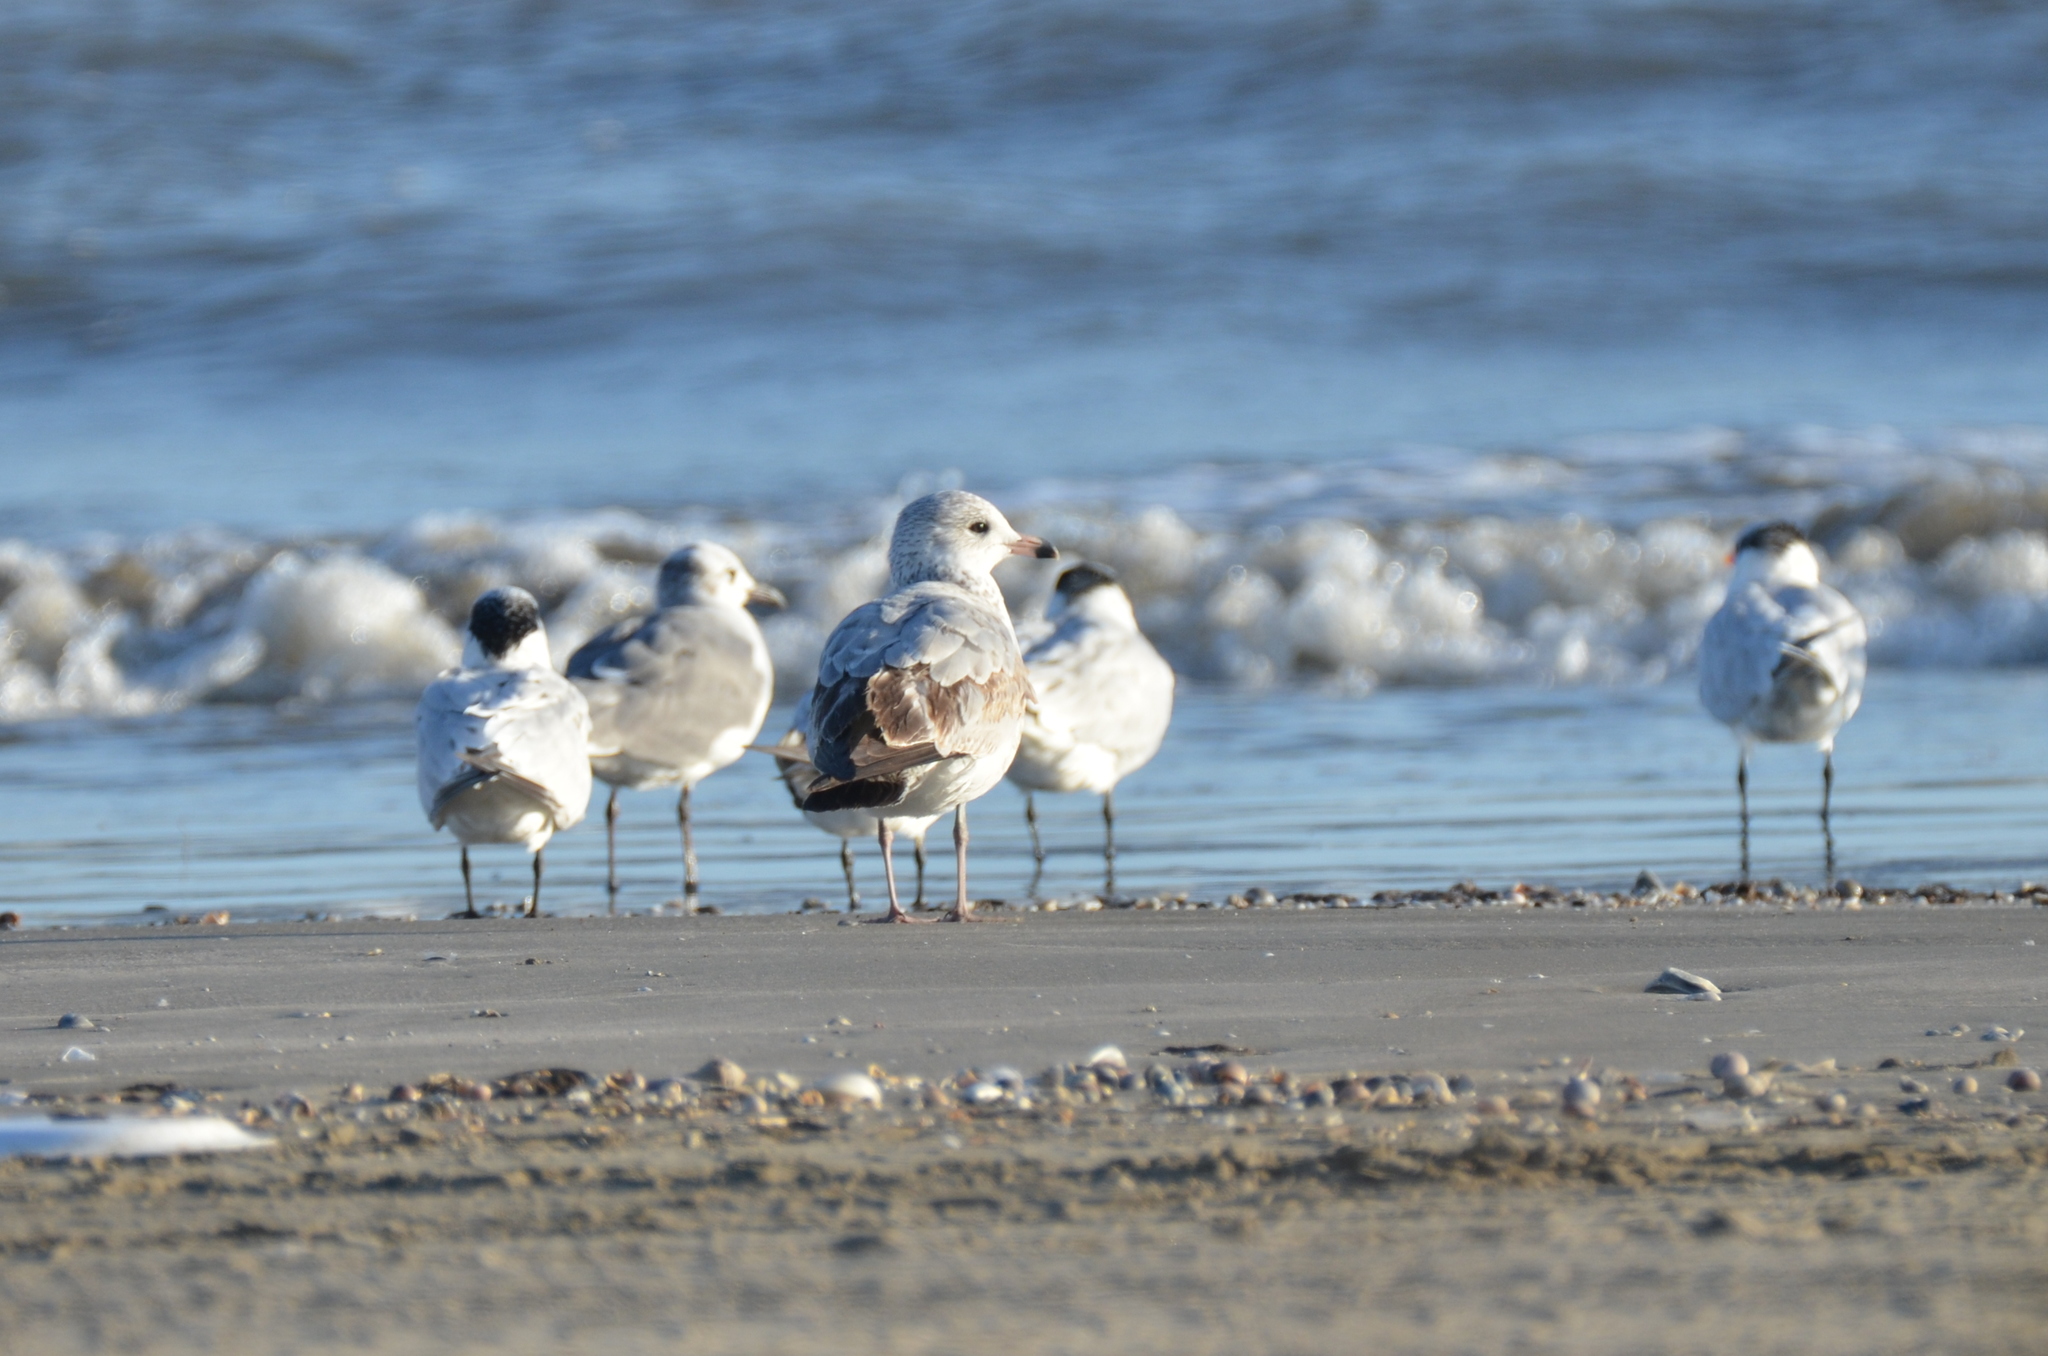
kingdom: Animalia
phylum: Chordata
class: Aves
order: Charadriiformes
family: Laridae
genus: Larus
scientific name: Larus delawarensis
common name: Ring-billed gull
